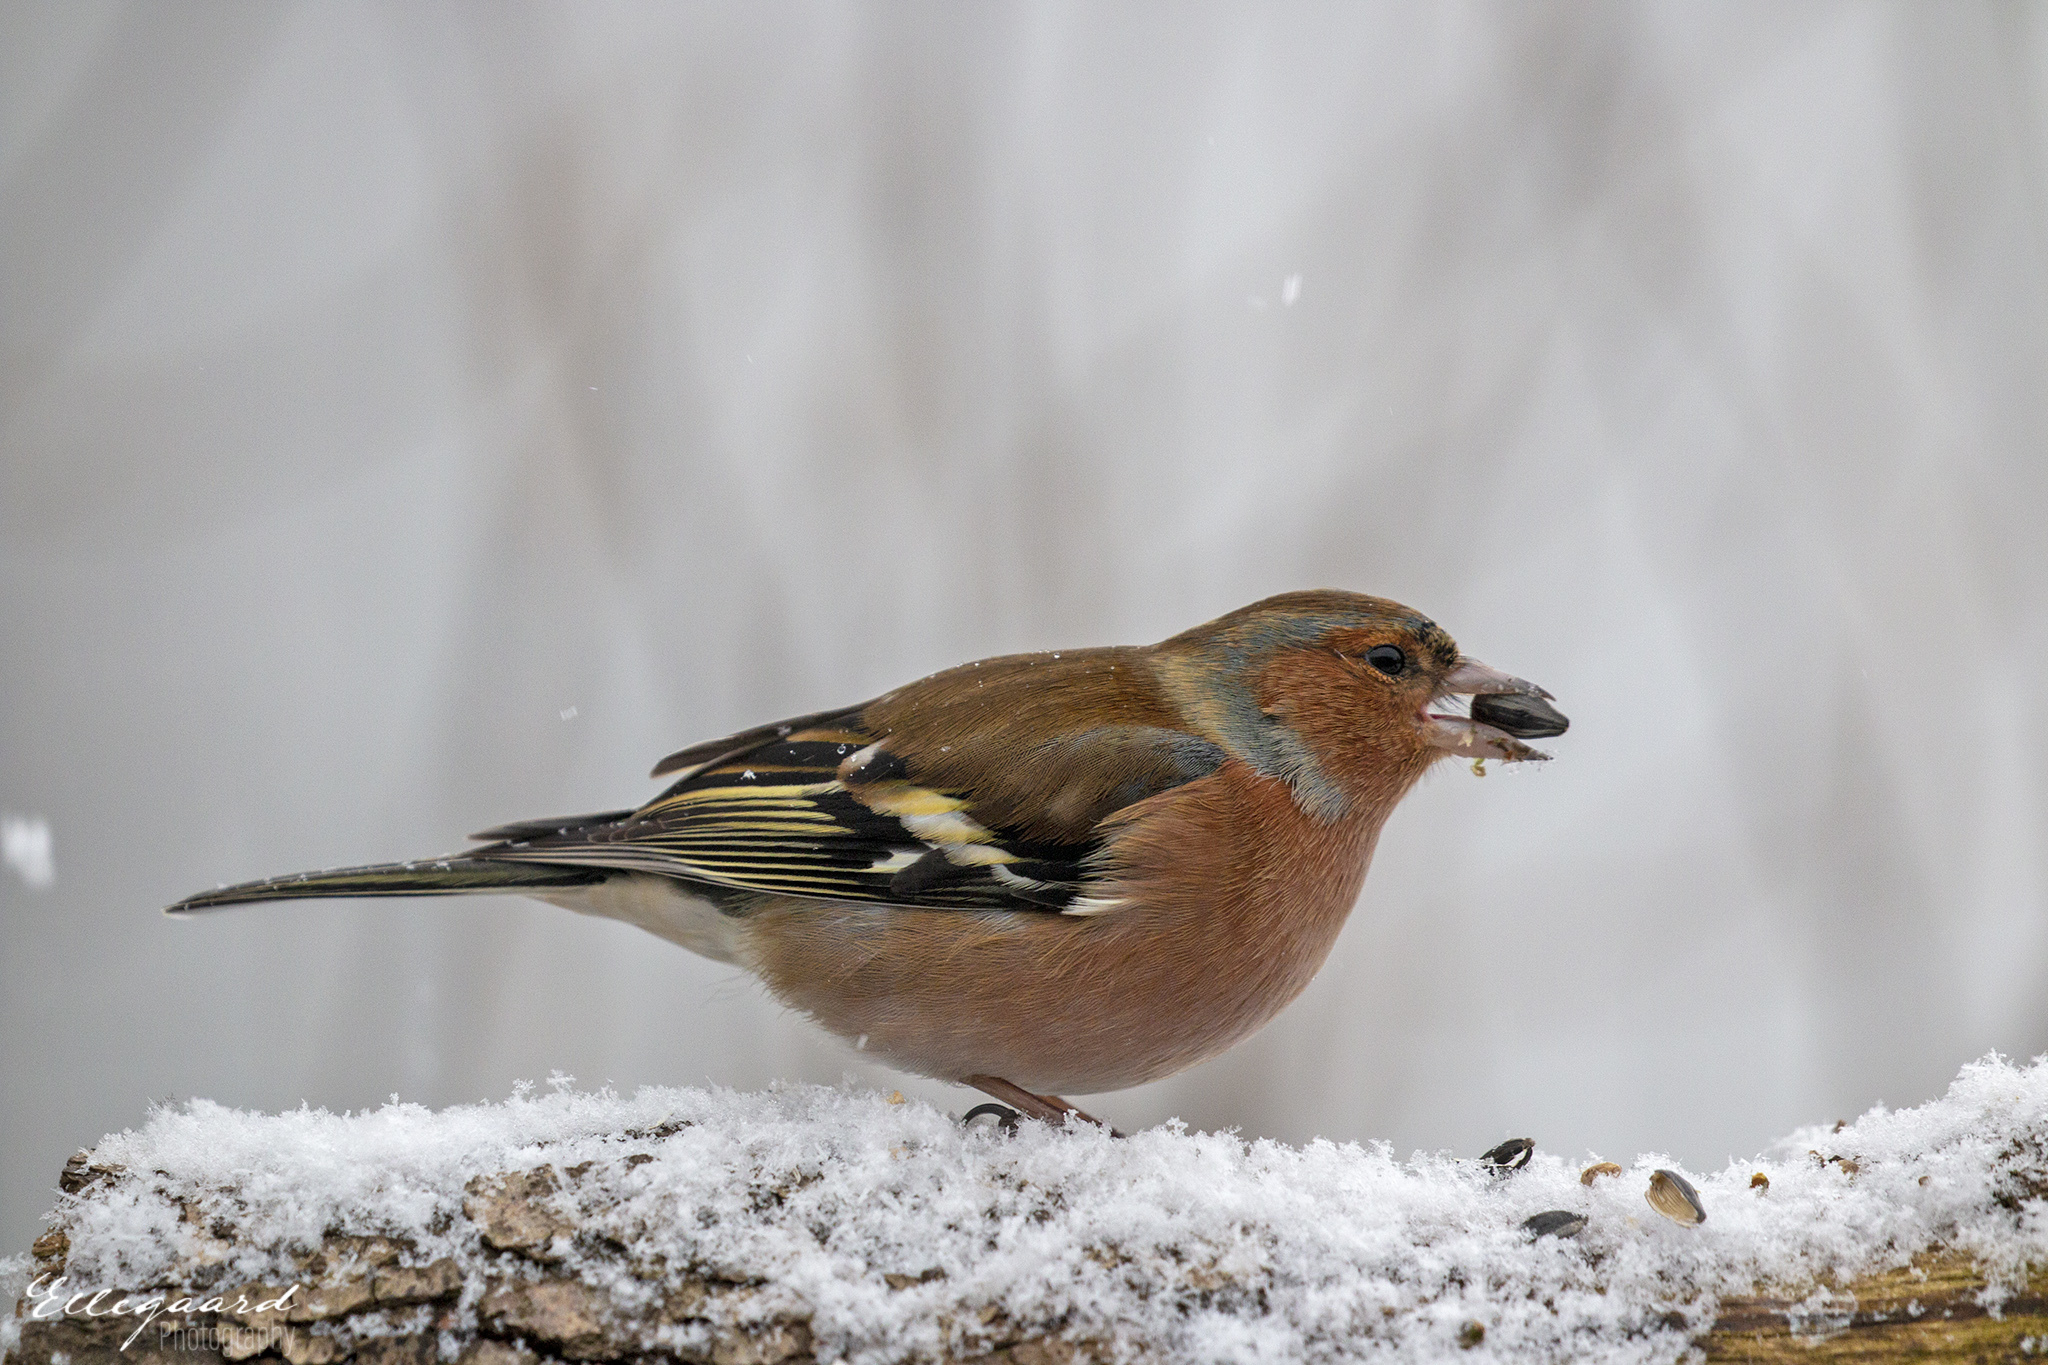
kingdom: Animalia
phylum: Chordata
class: Aves
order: Passeriformes
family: Fringillidae
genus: Fringilla
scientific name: Fringilla coelebs
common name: Common chaffinch
